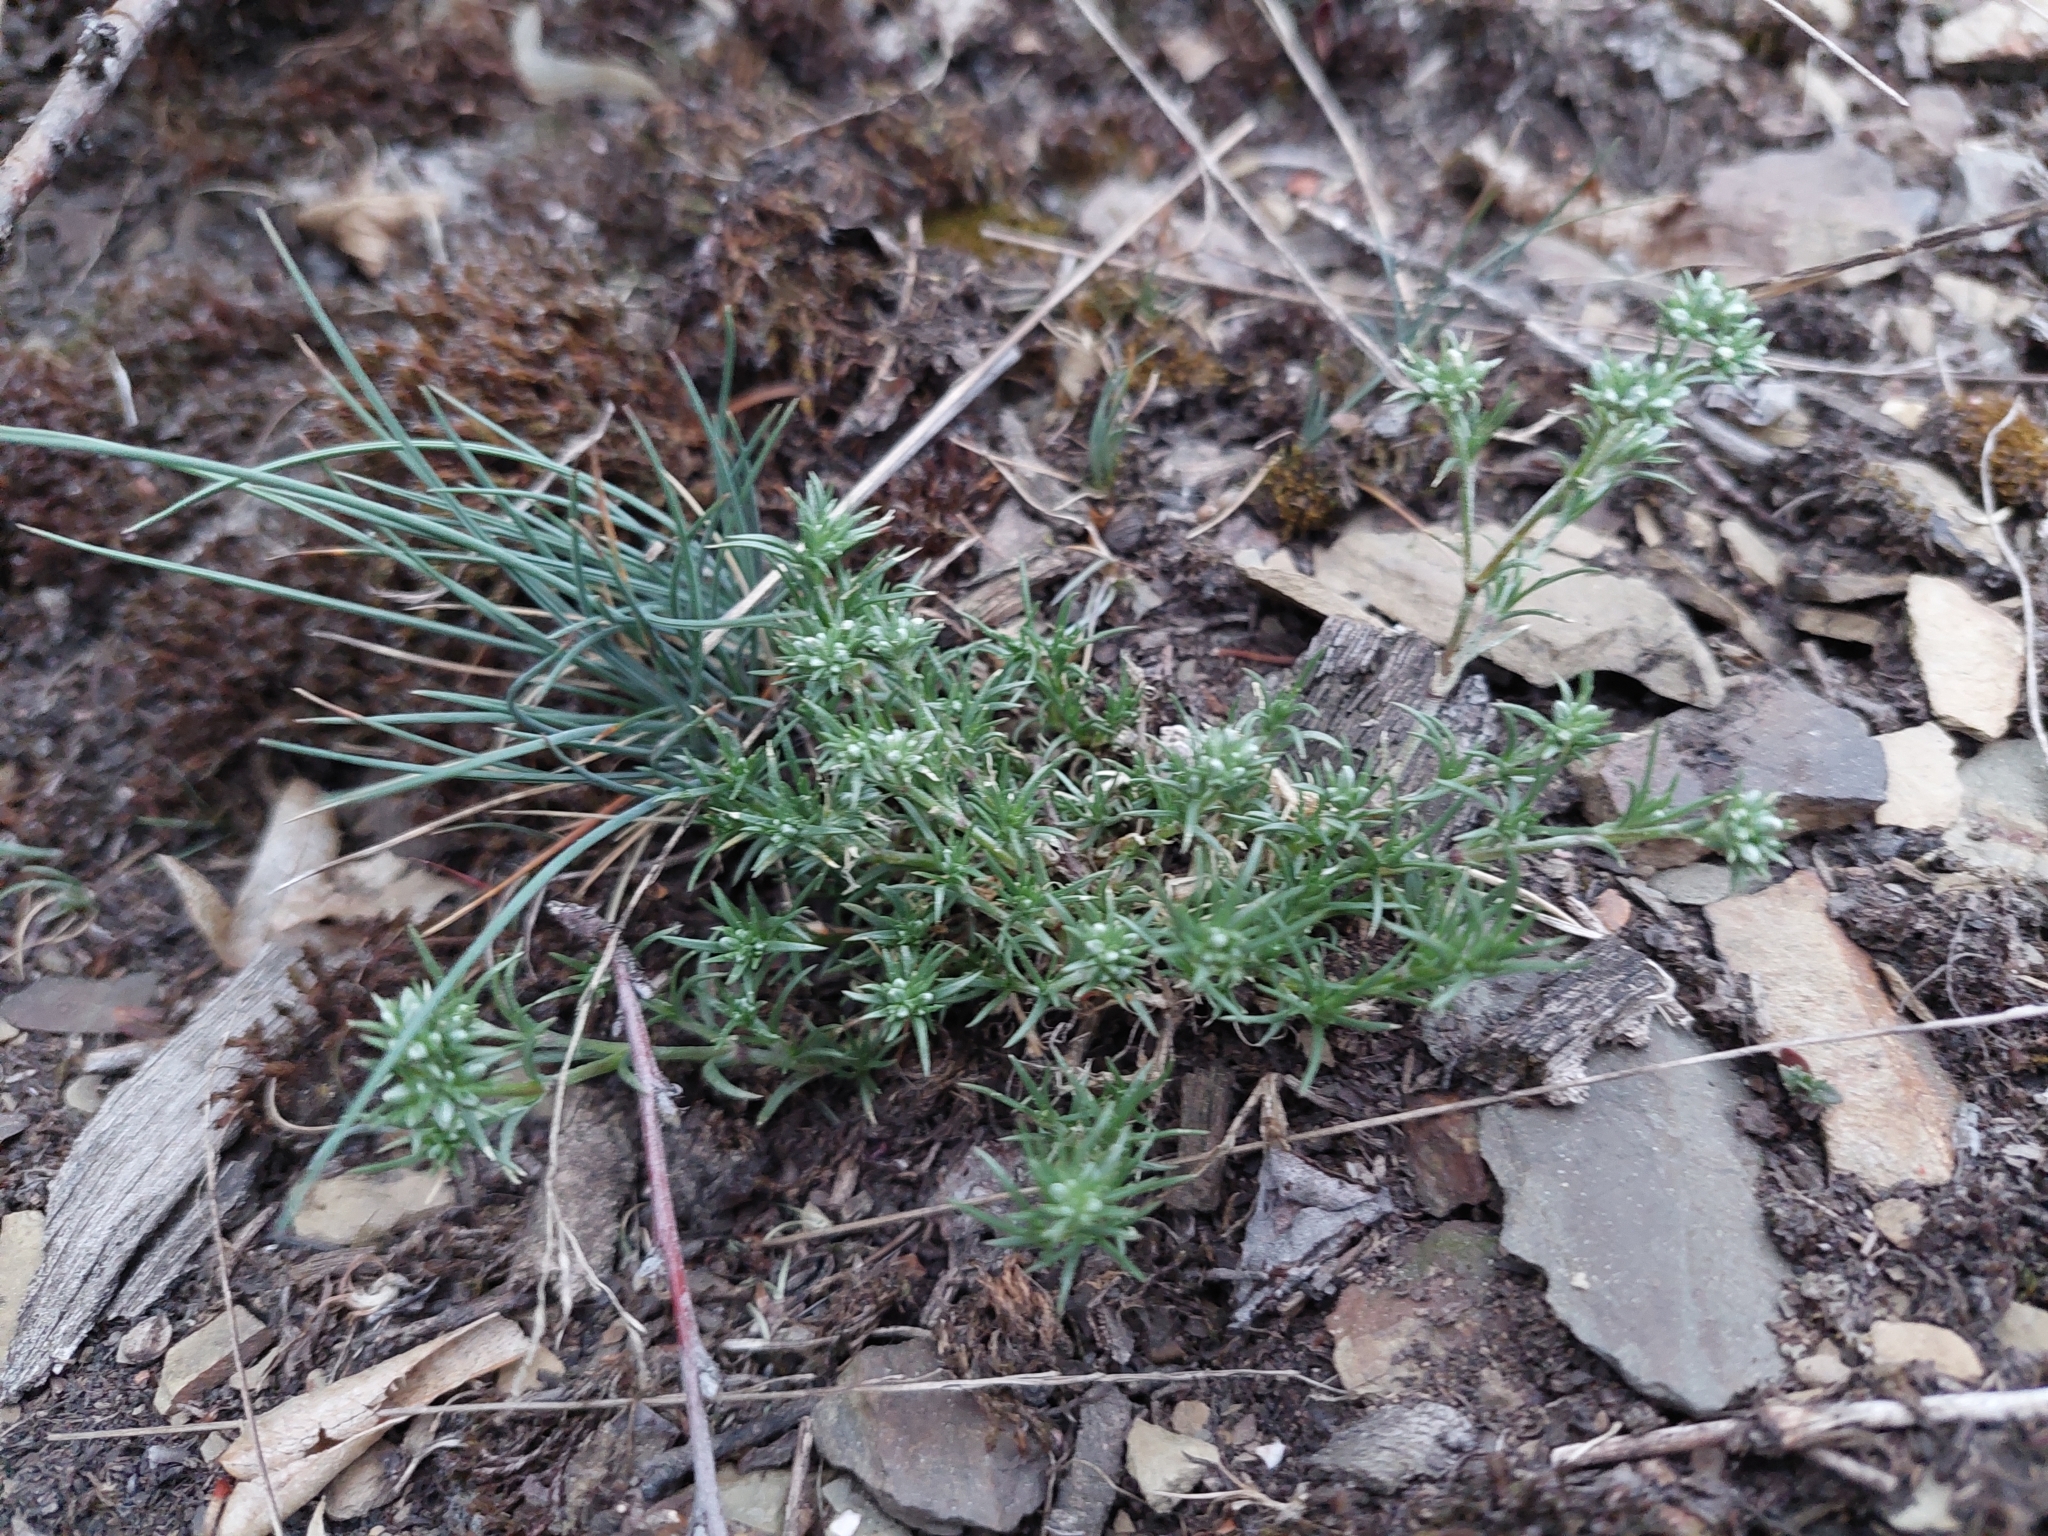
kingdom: Plantae
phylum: Tracheophyta
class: Magnoliopsida
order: Caryophyllales
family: Caryophyllaceae
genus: Scleranthus
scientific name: Scleranthus perennis
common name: Perennial knawel
